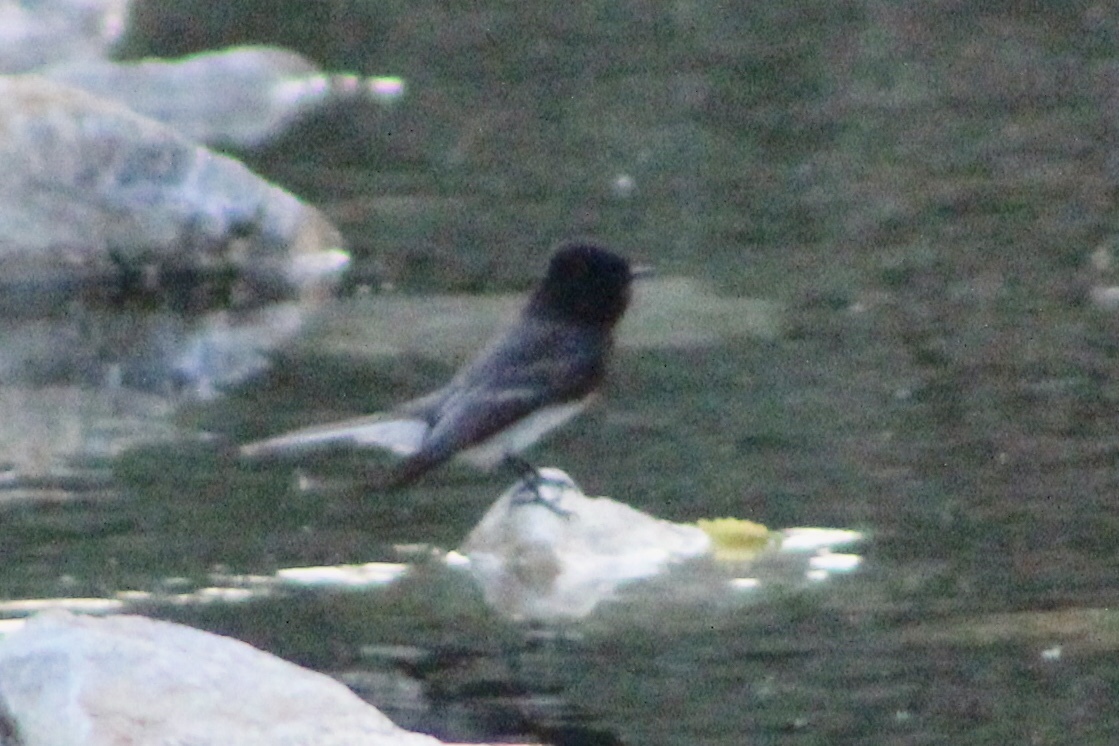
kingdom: Animalia
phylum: Chordata
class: Aves
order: Passeriformes
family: Tyrannidae
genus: Sayornis
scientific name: Sayornis nigricans
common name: Black phoebe
